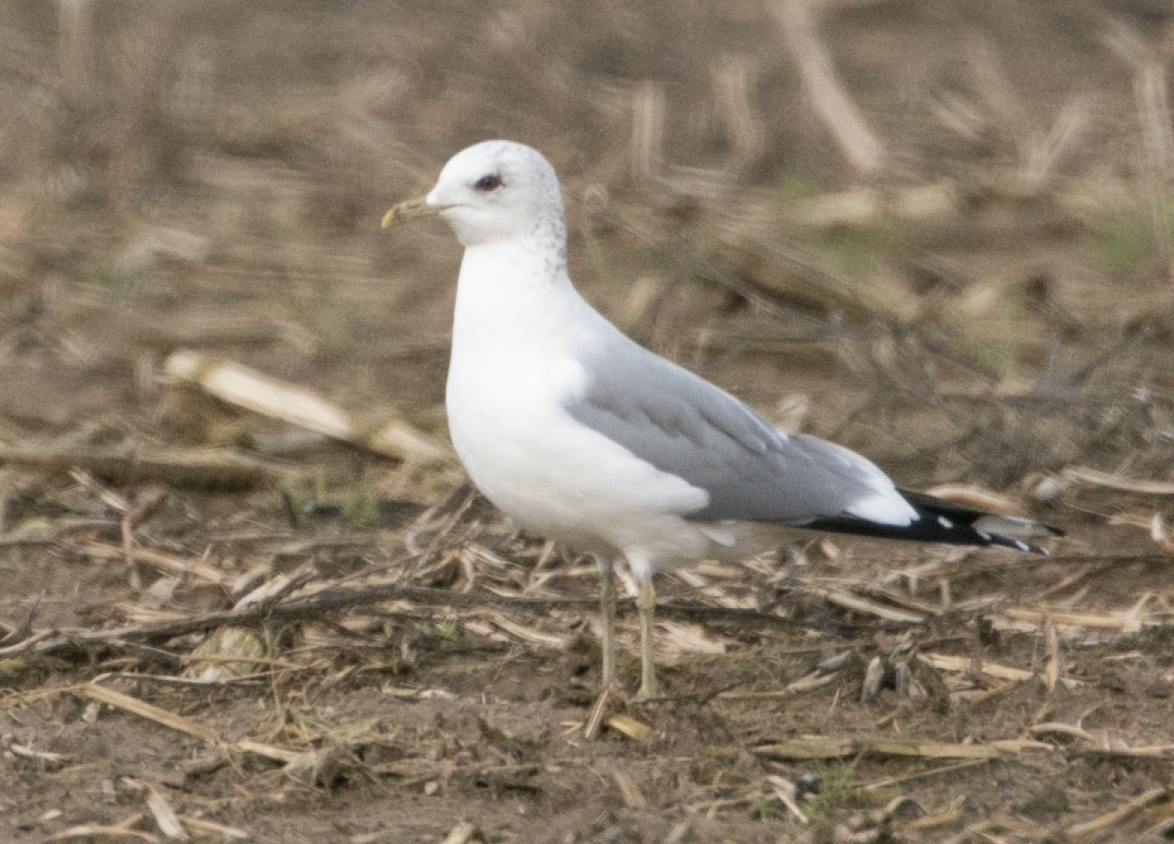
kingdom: Animalia
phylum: Chordata
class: Aves
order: Charadriiformes
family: Laridae
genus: Larus
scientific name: Larus canus
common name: Mew gull
